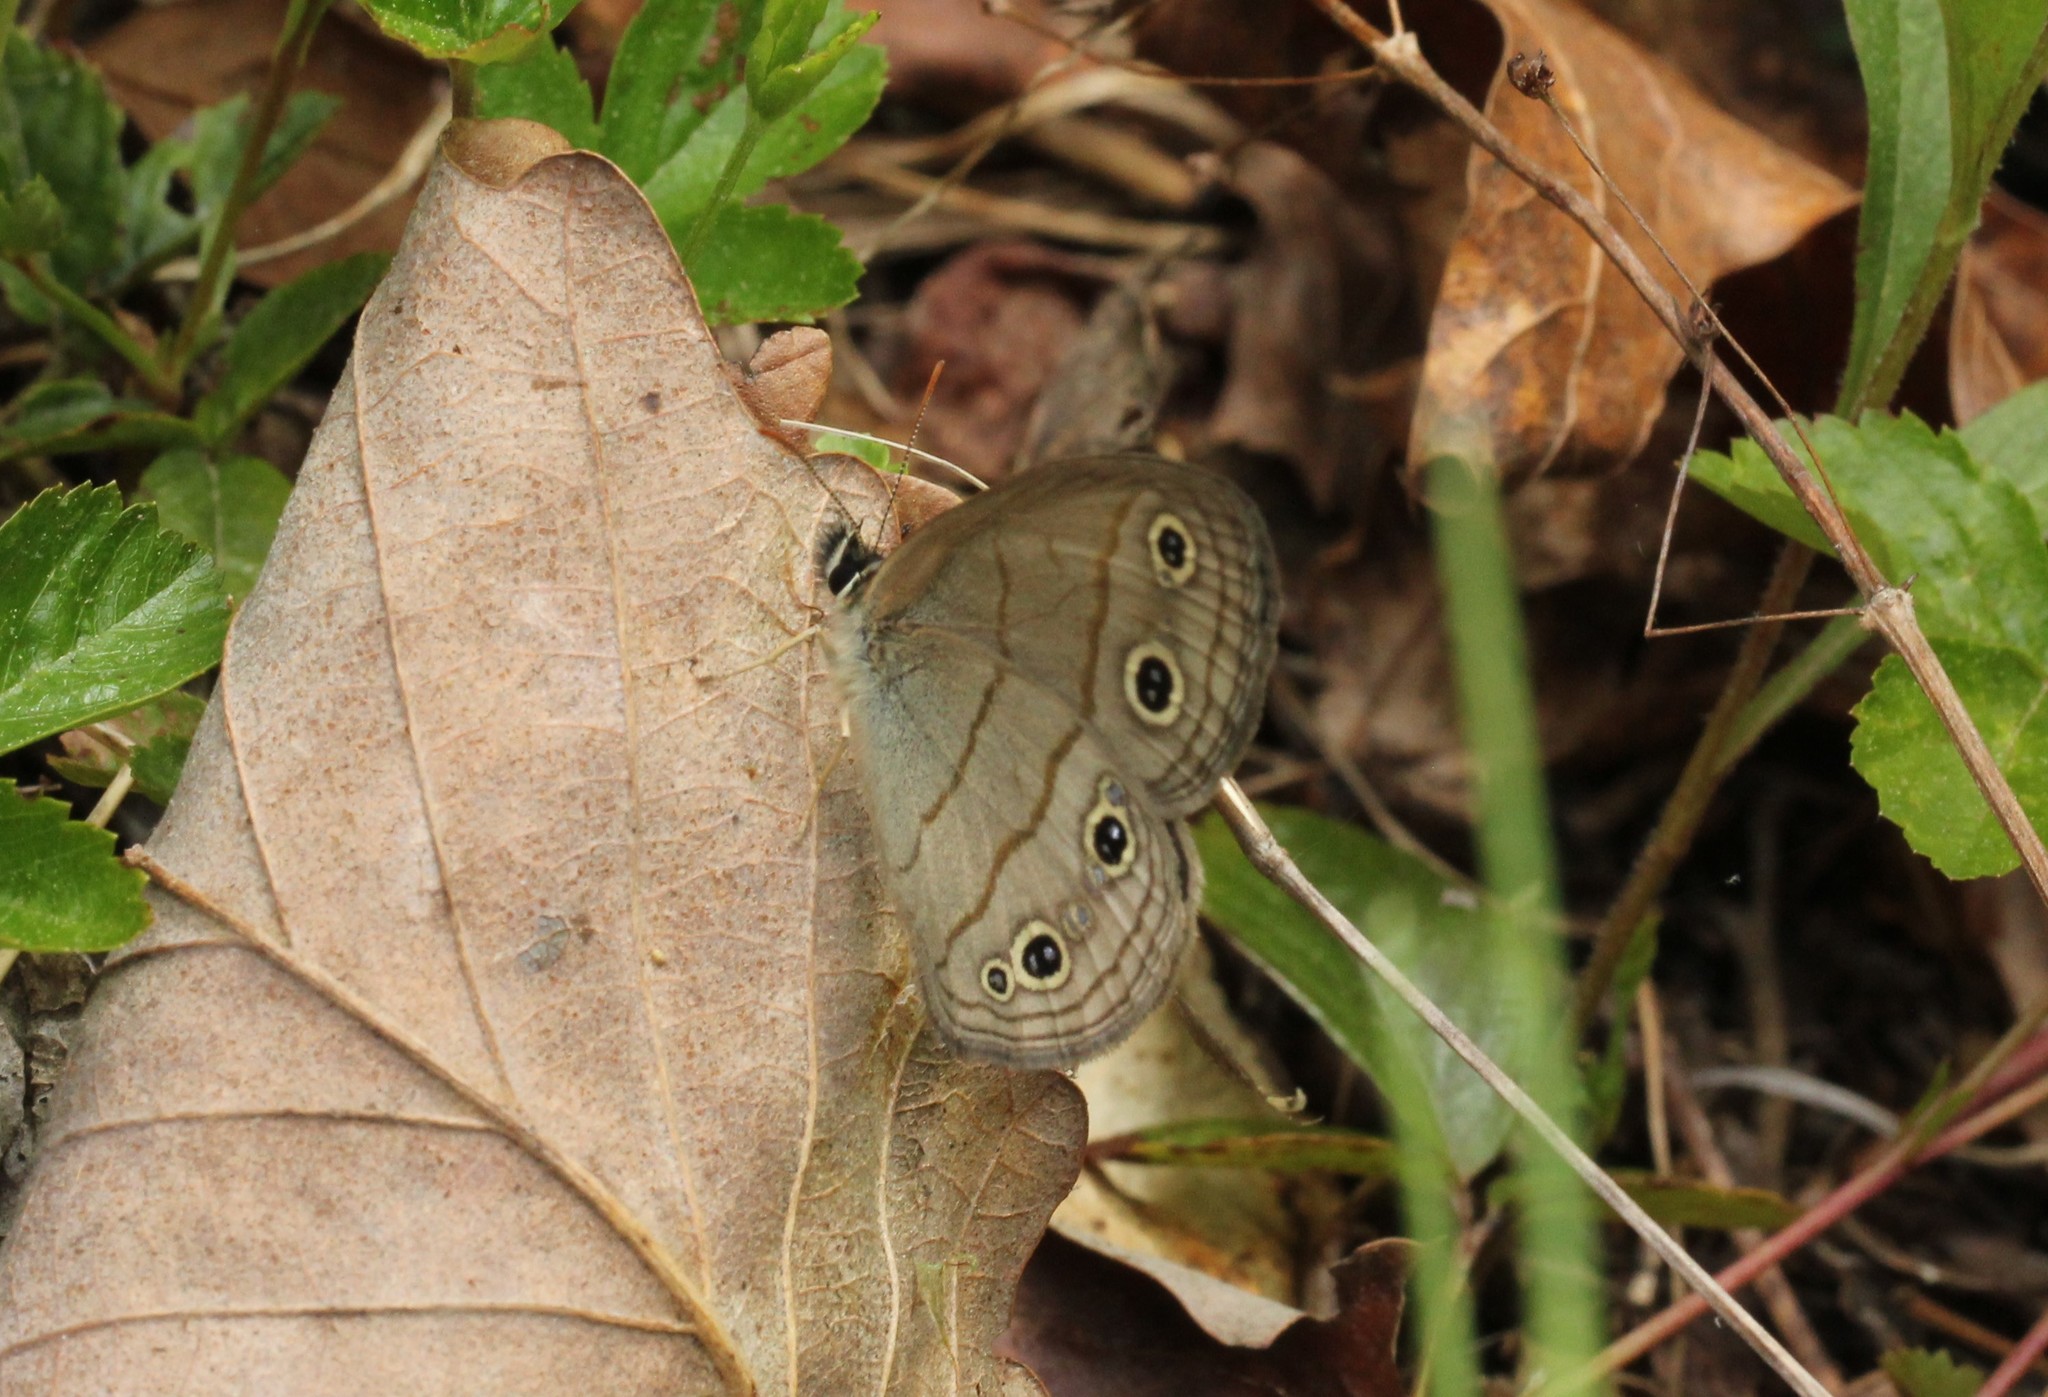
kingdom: Animalia
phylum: Arthropoda
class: Insecta
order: Lepidoptera
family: Nymphalidae
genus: Euptychia
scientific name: Euptychia cymela
